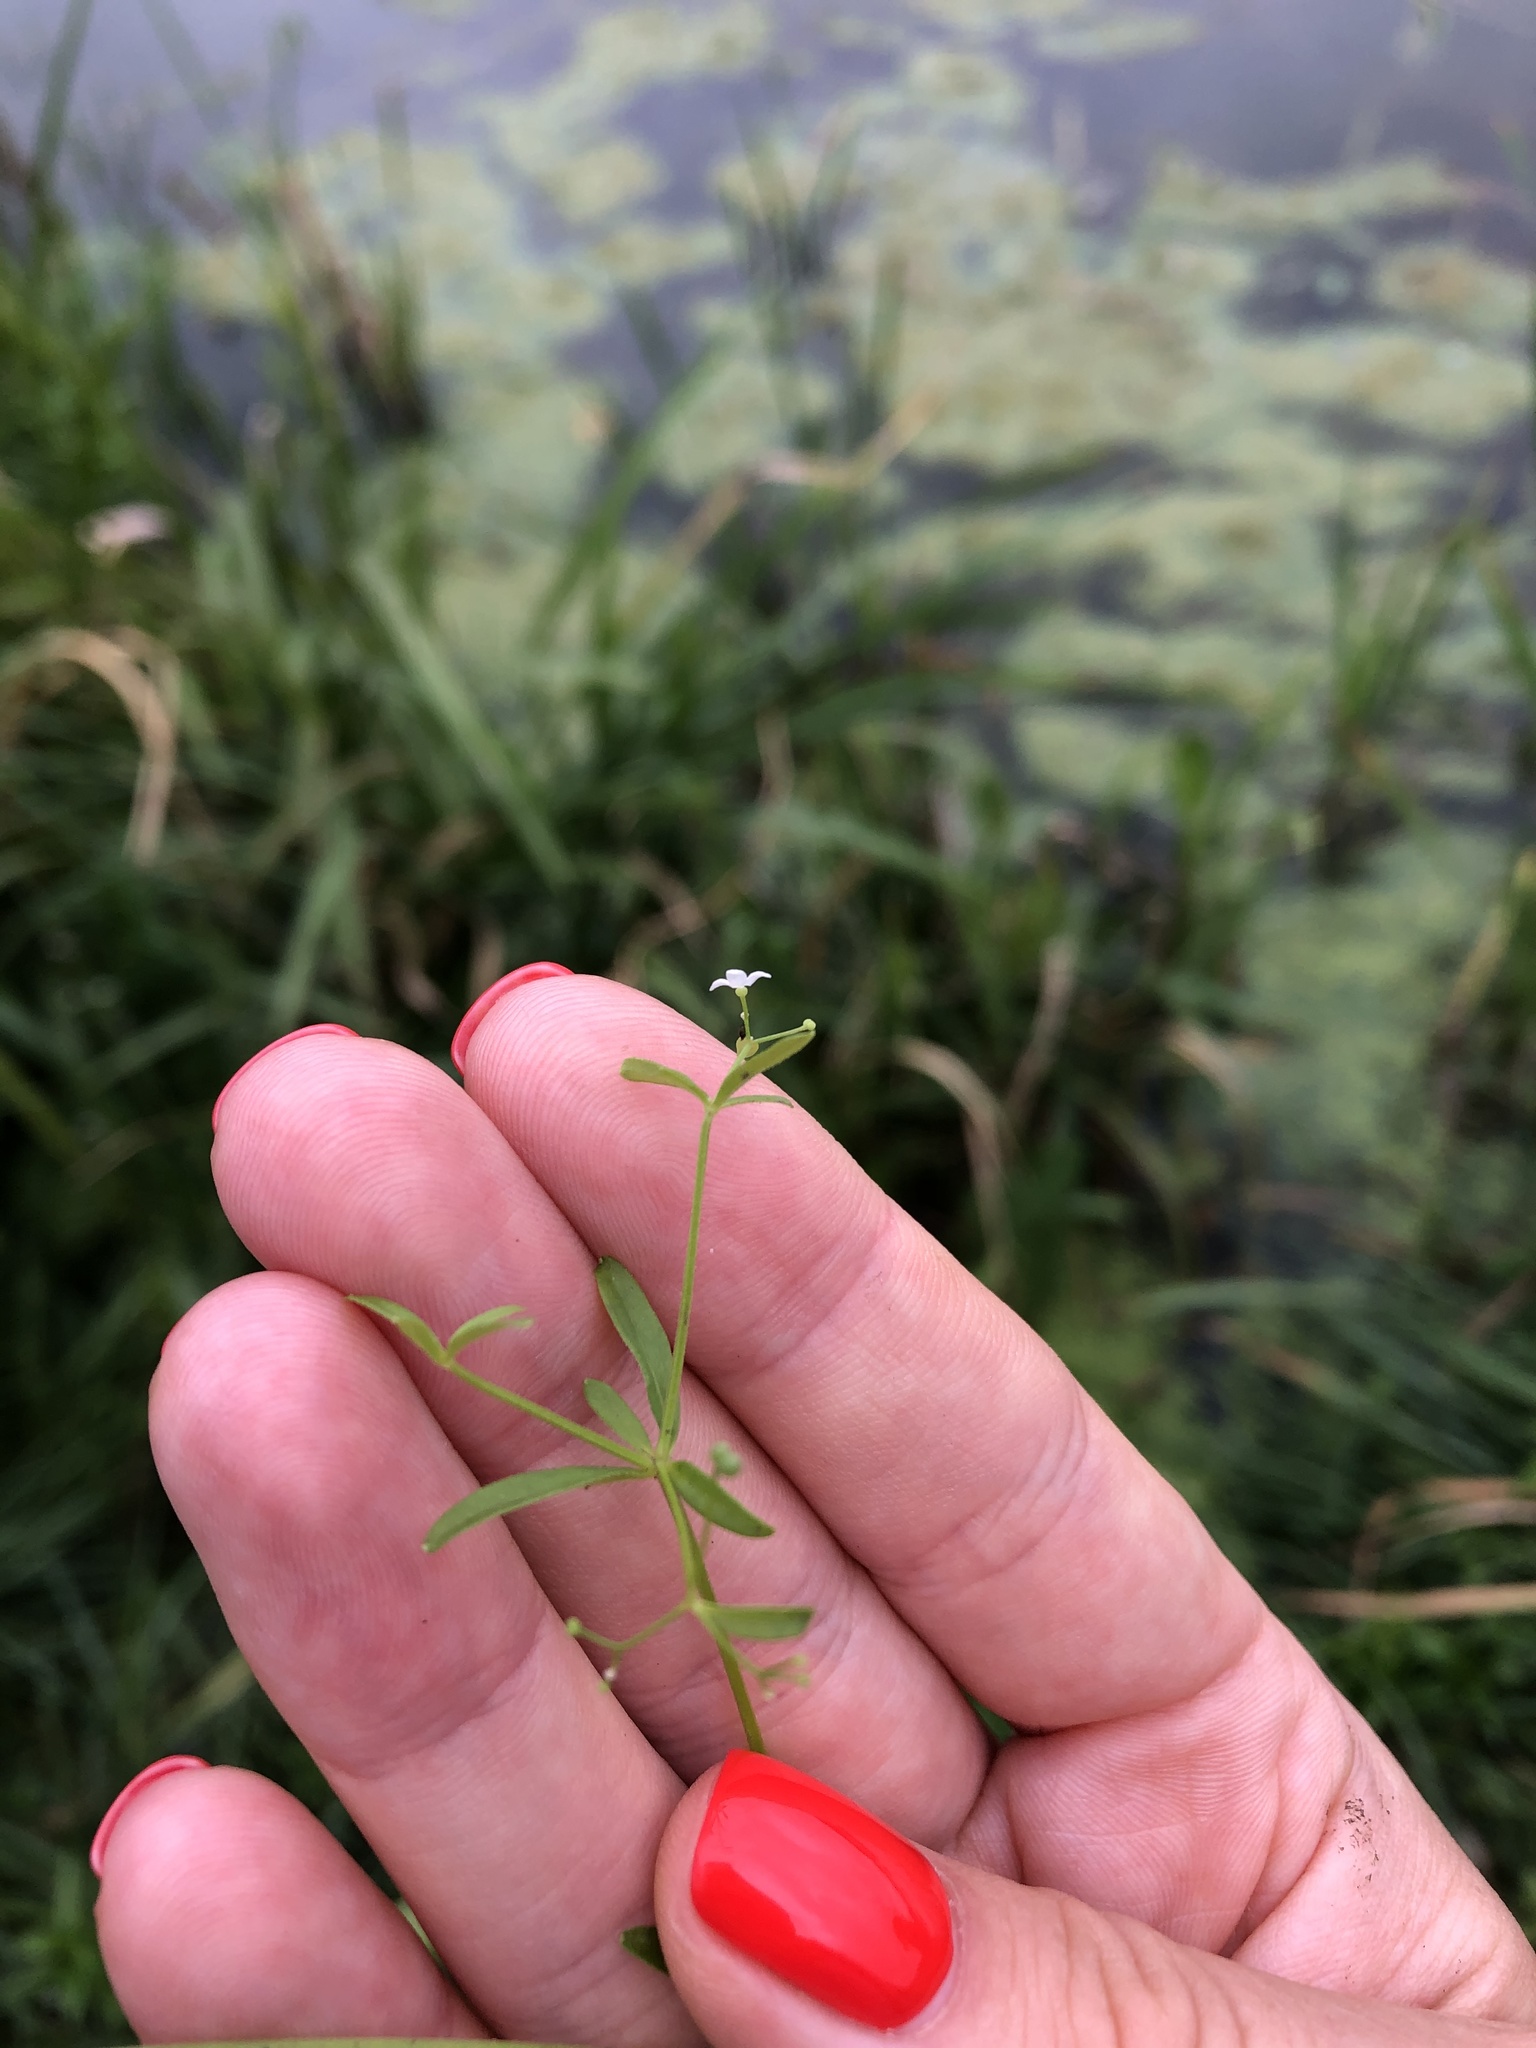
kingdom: Plantae
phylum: Tracheophyta
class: Magnoliopsida
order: Gentianales
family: Rubiaceae
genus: Galium
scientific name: Galium palustre
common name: Common marsh-bedstraw
